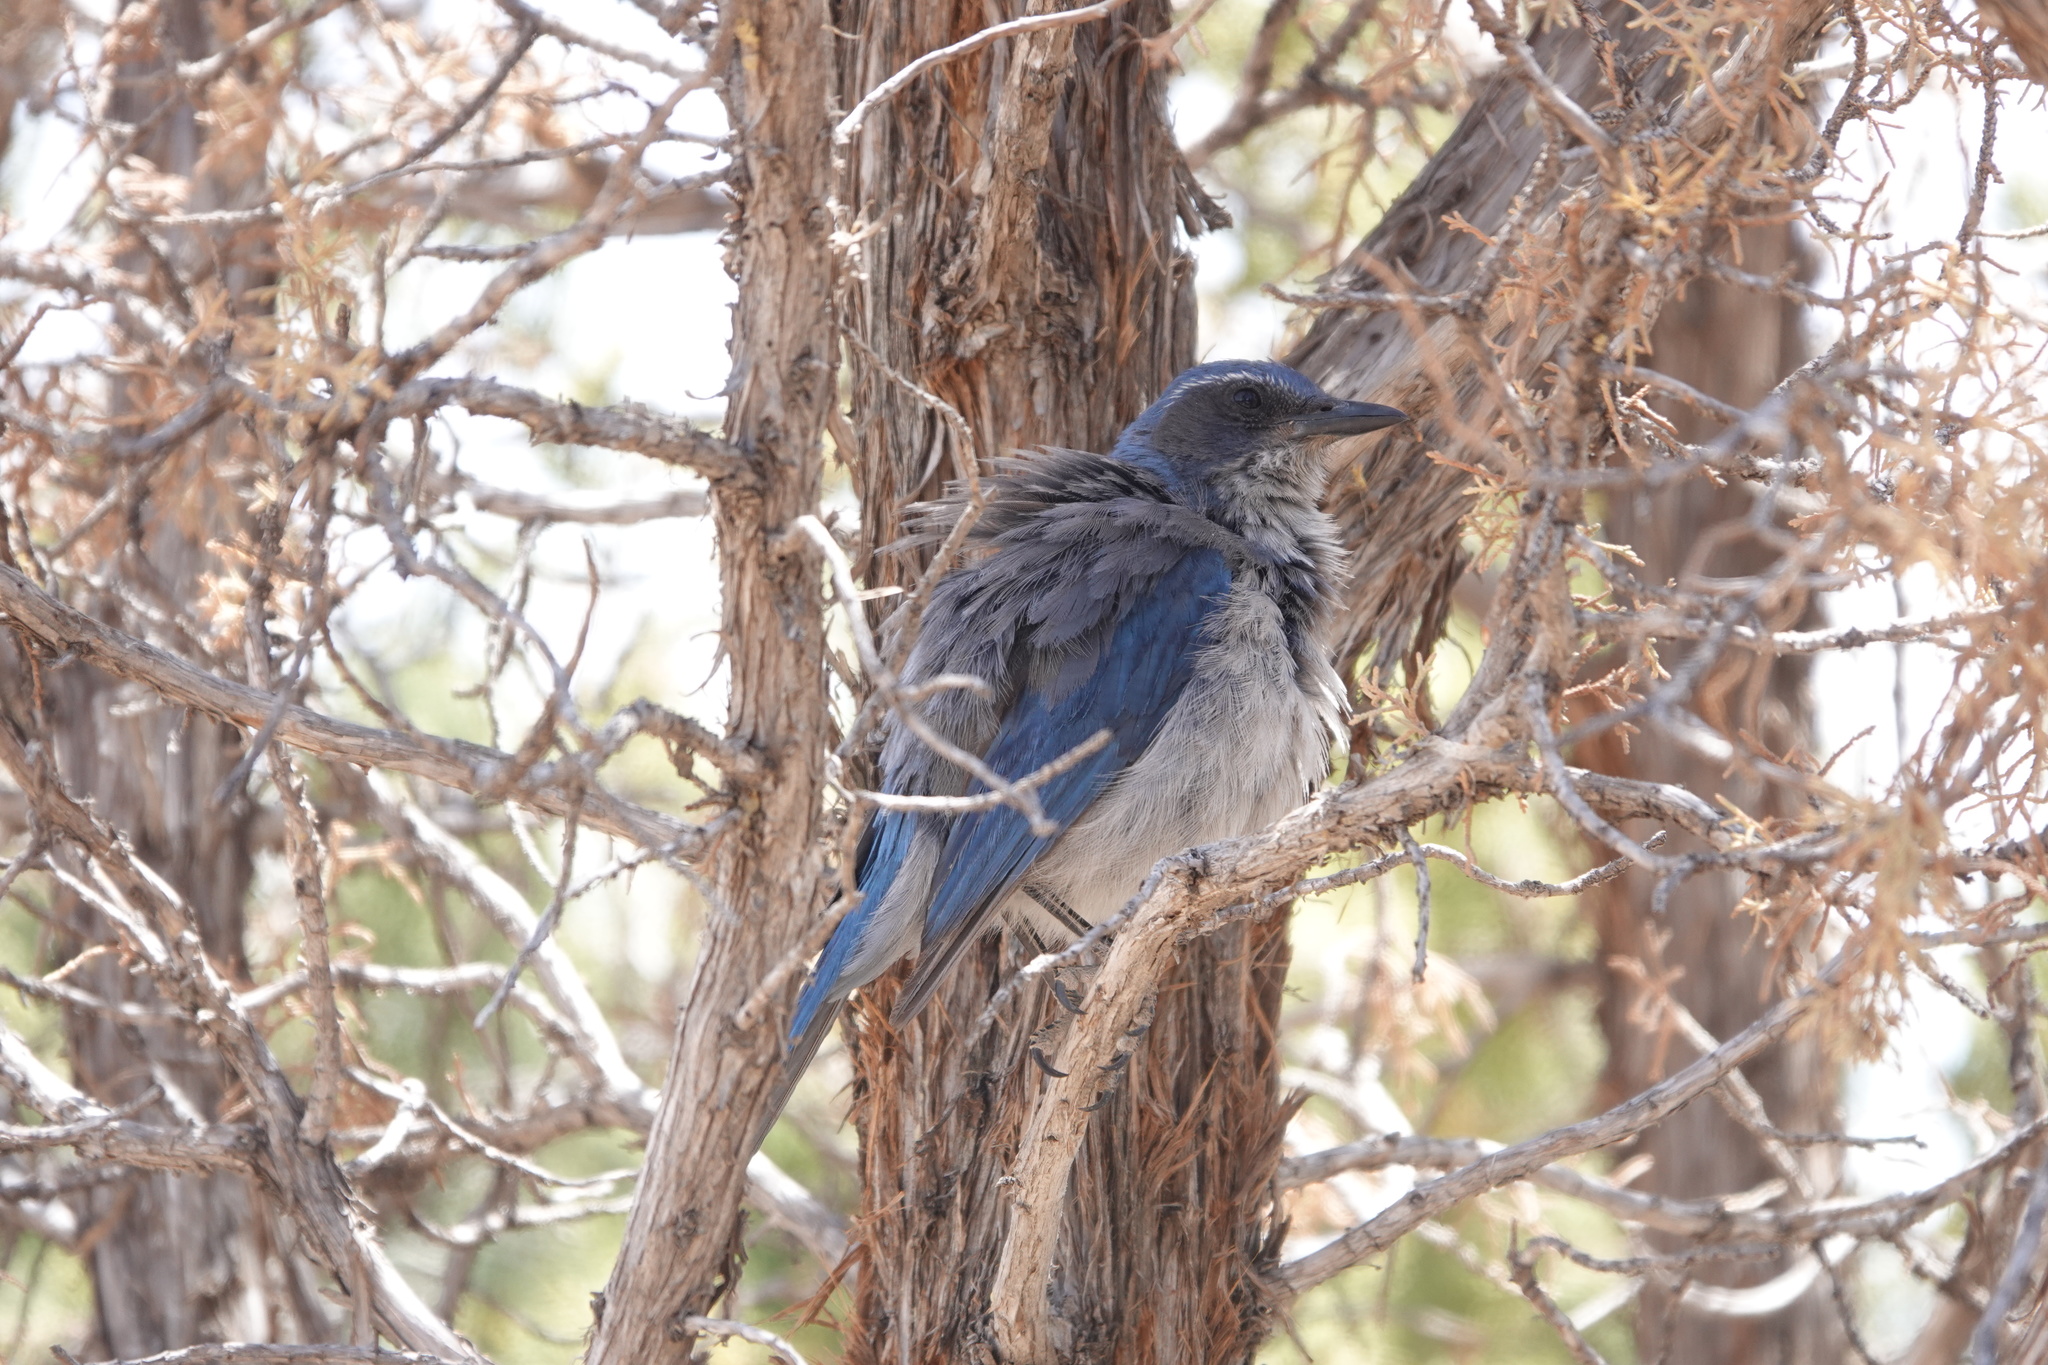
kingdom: Animalia
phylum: Chordata
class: Aves
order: Passeriformes
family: Corvidae
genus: Aphelocoma
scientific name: Aphelocoma woodhouseii
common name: Woodhouse's scrub-jay
